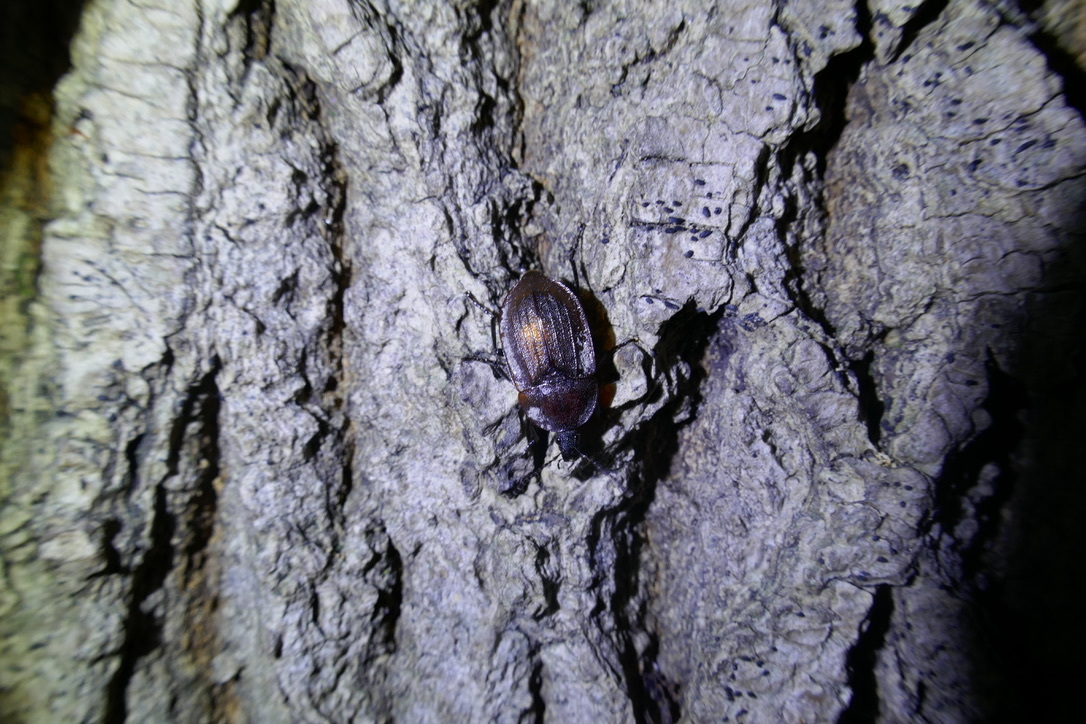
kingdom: Animalia
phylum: Arthropoda
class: Insecta
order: Coleoptera
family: Staphylinidae
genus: Silpha
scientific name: Silpha atrata
